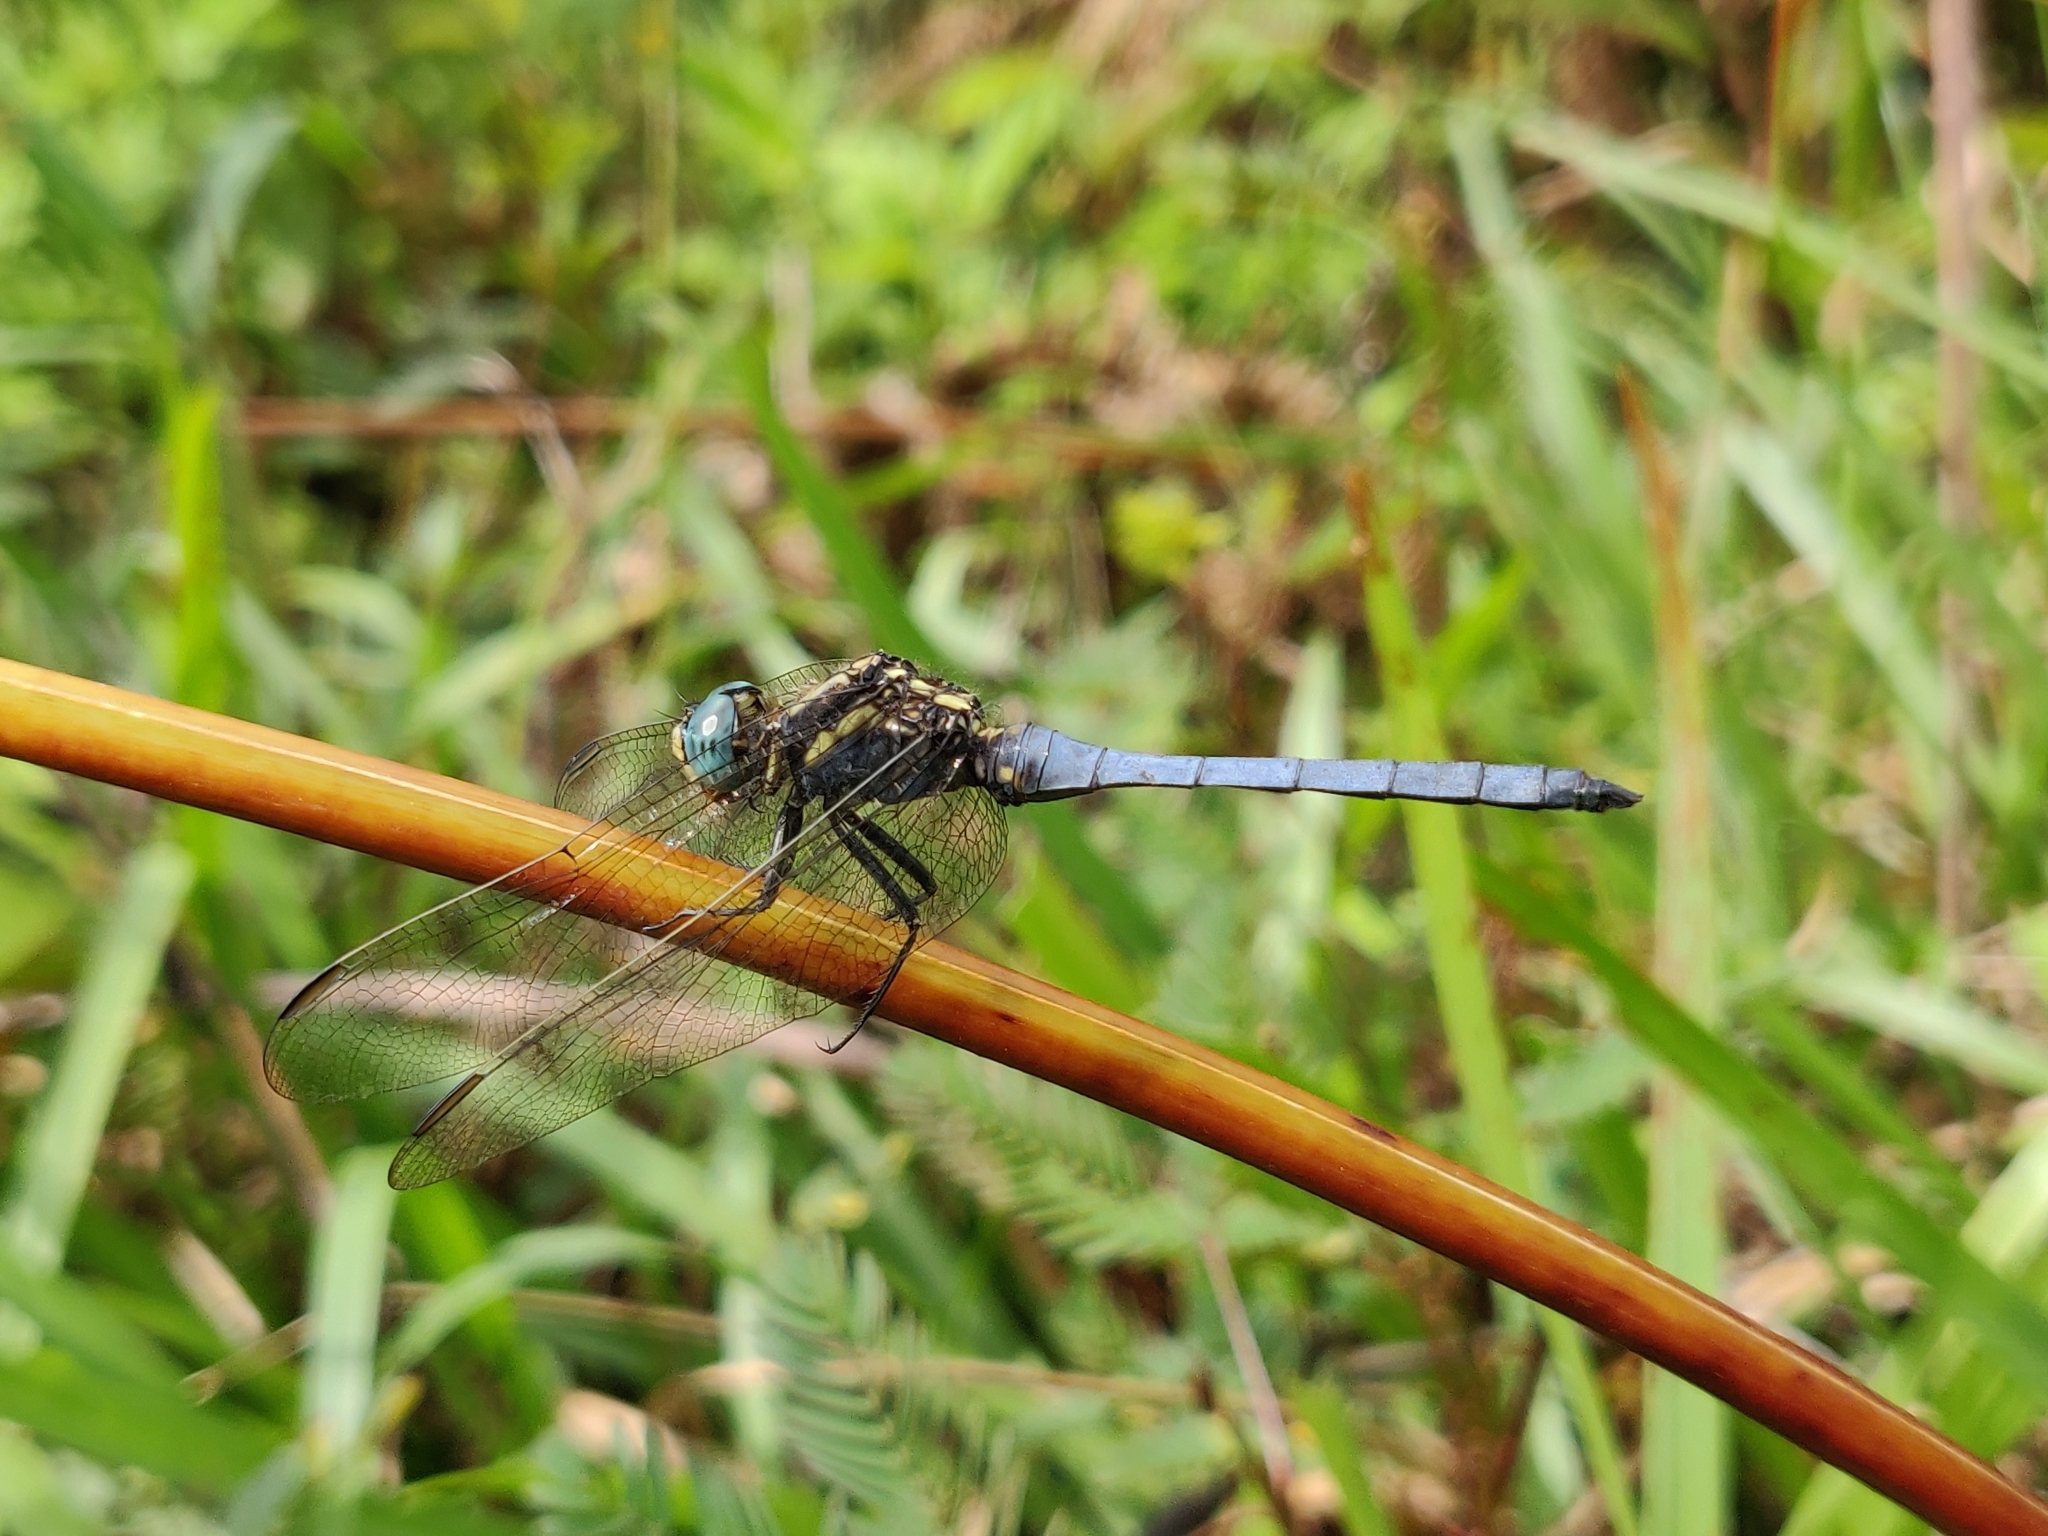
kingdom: Animalia
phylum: Arthropoda
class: Insecta
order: Odonata
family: Libellulidae
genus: Orthetrum
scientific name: Orthetrum luzonicum
